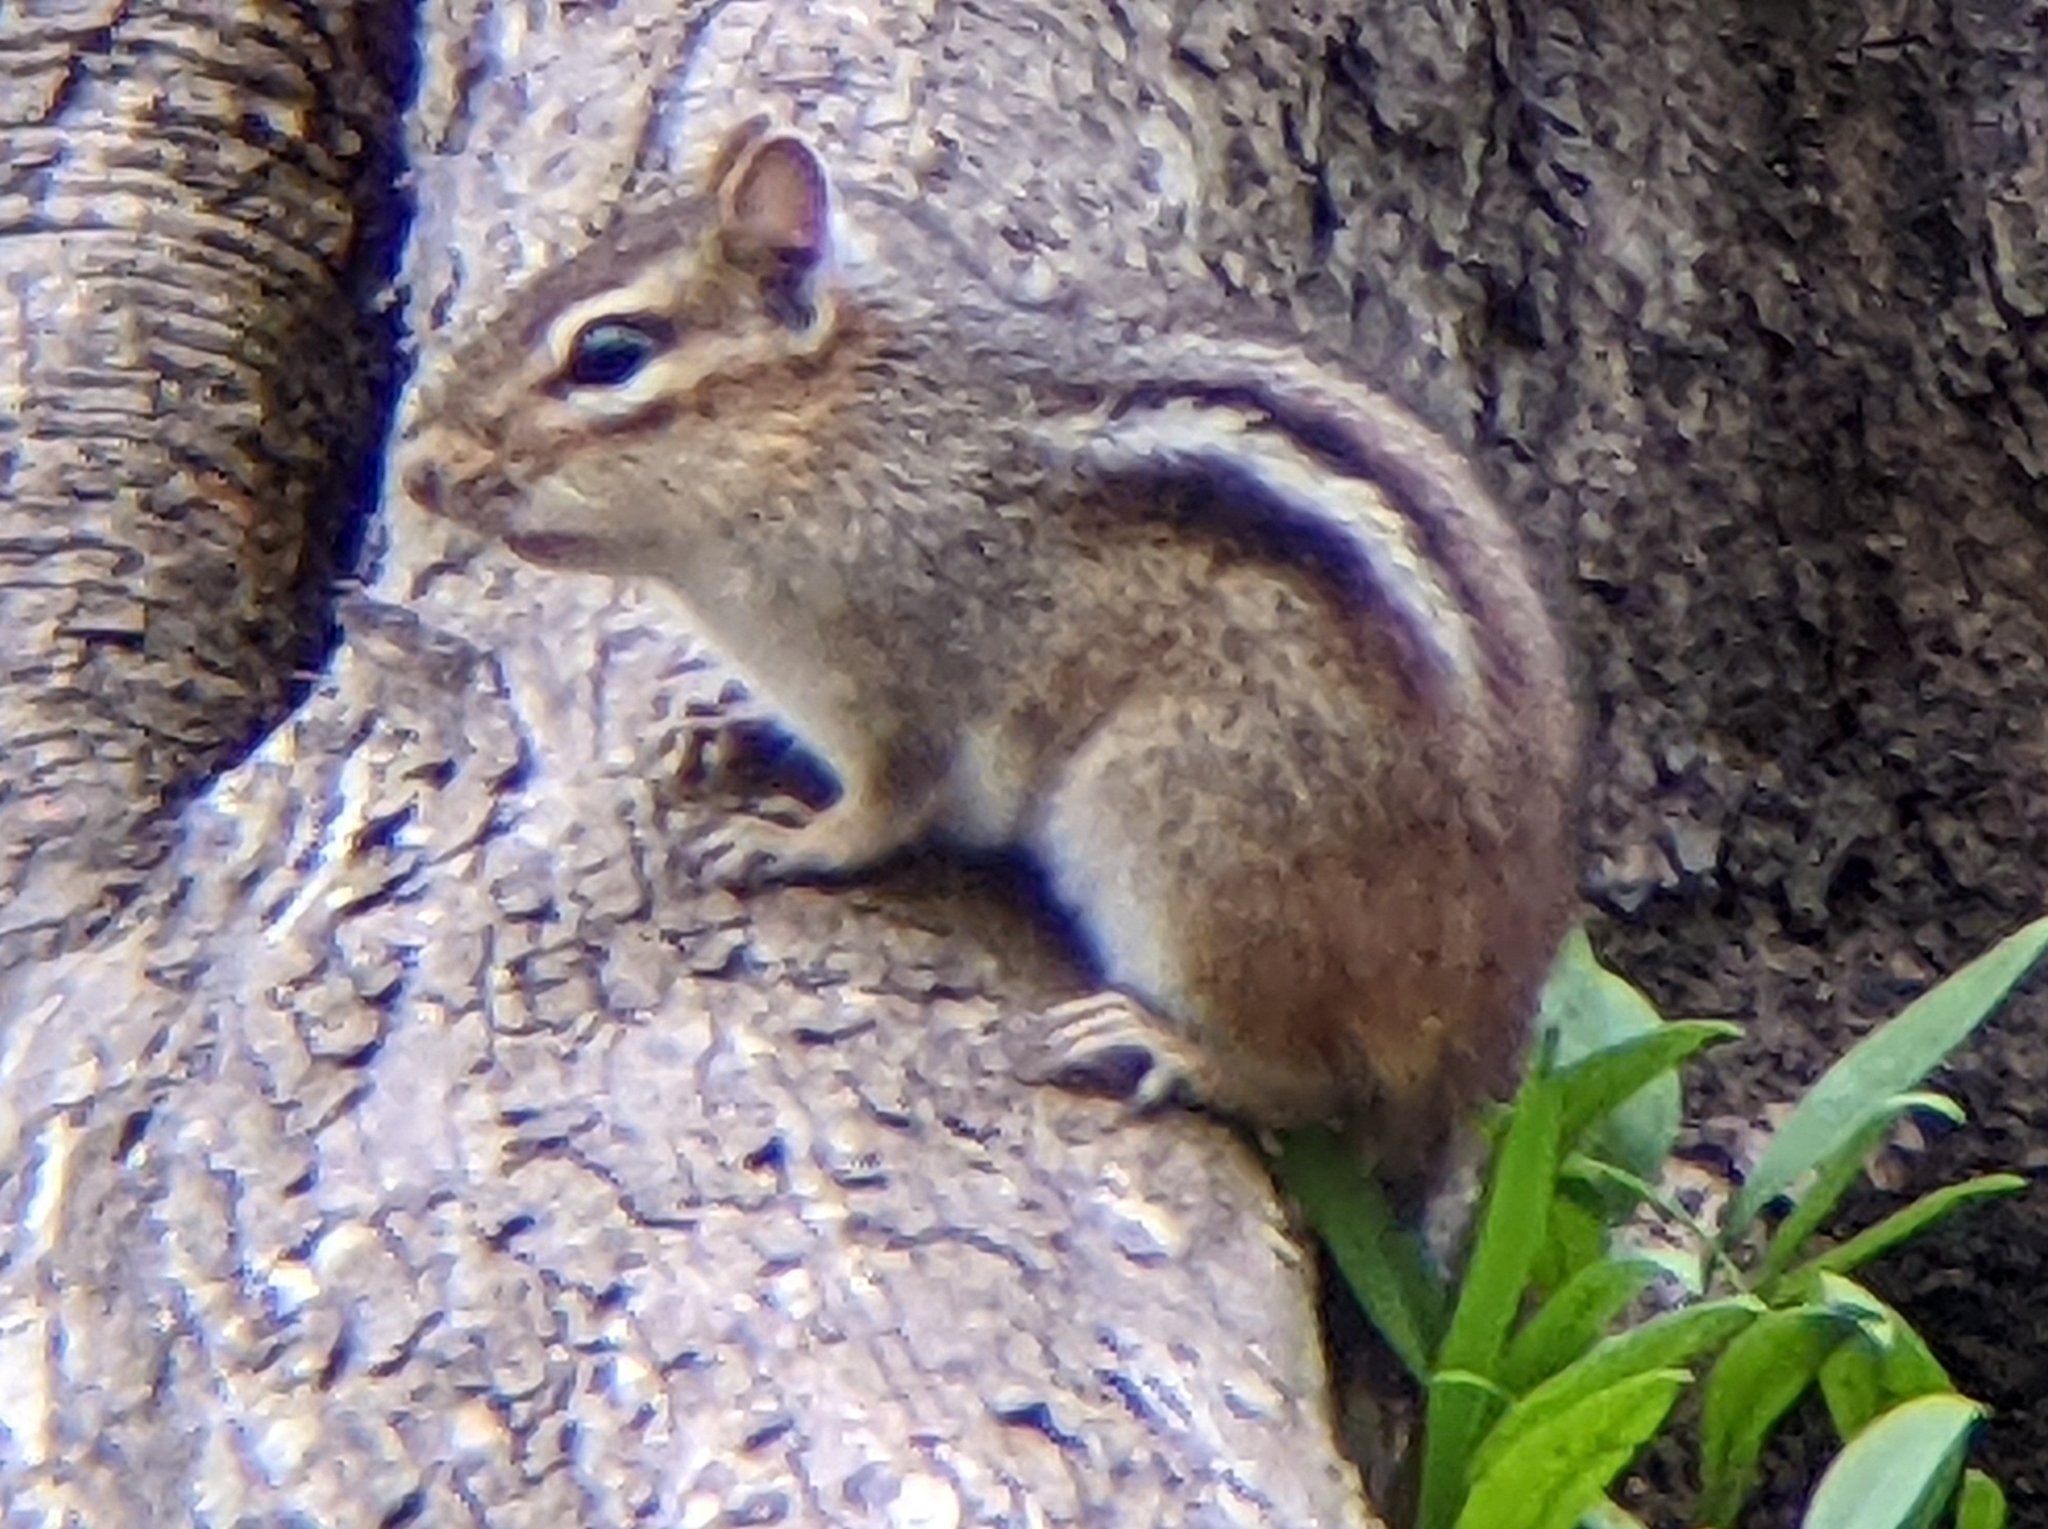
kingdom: Animalia
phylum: Chordata
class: Mammalia
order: Rodentia
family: Sciuridae
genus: Tamias
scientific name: Tamias striatus
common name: Eastern chipmunk
